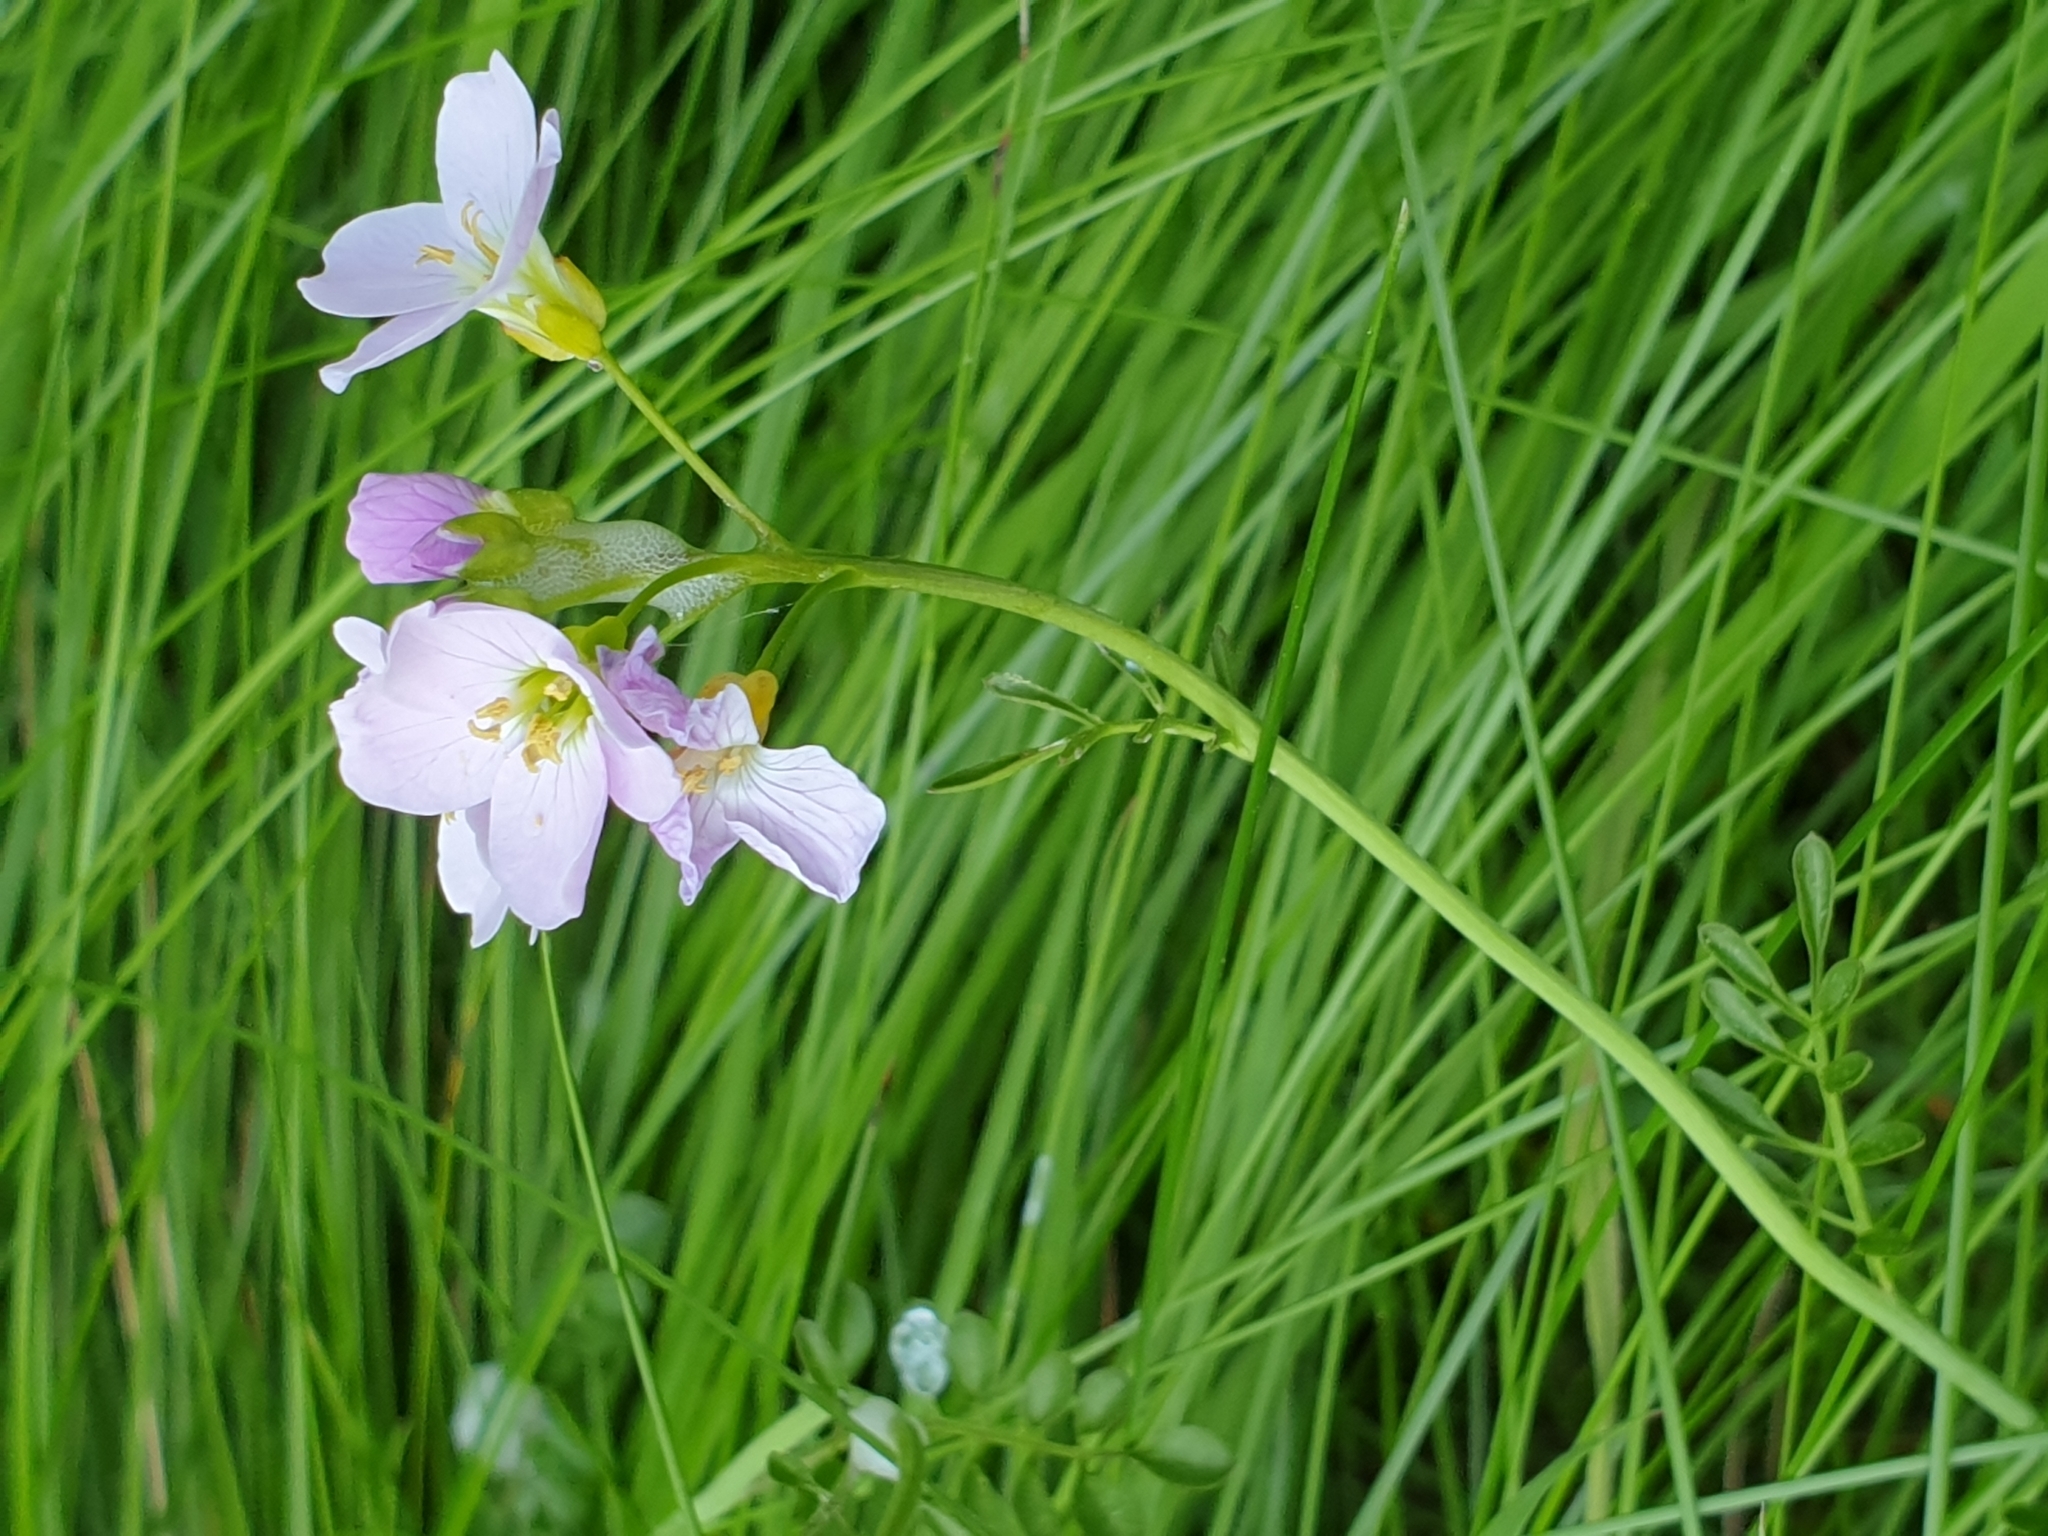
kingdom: Plantae
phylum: Tracheophyta
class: Magnoliopsida
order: Brassicales
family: Brassicaceae
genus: Cardamine
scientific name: Cardamine pratensis
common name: Cuckoo flower
